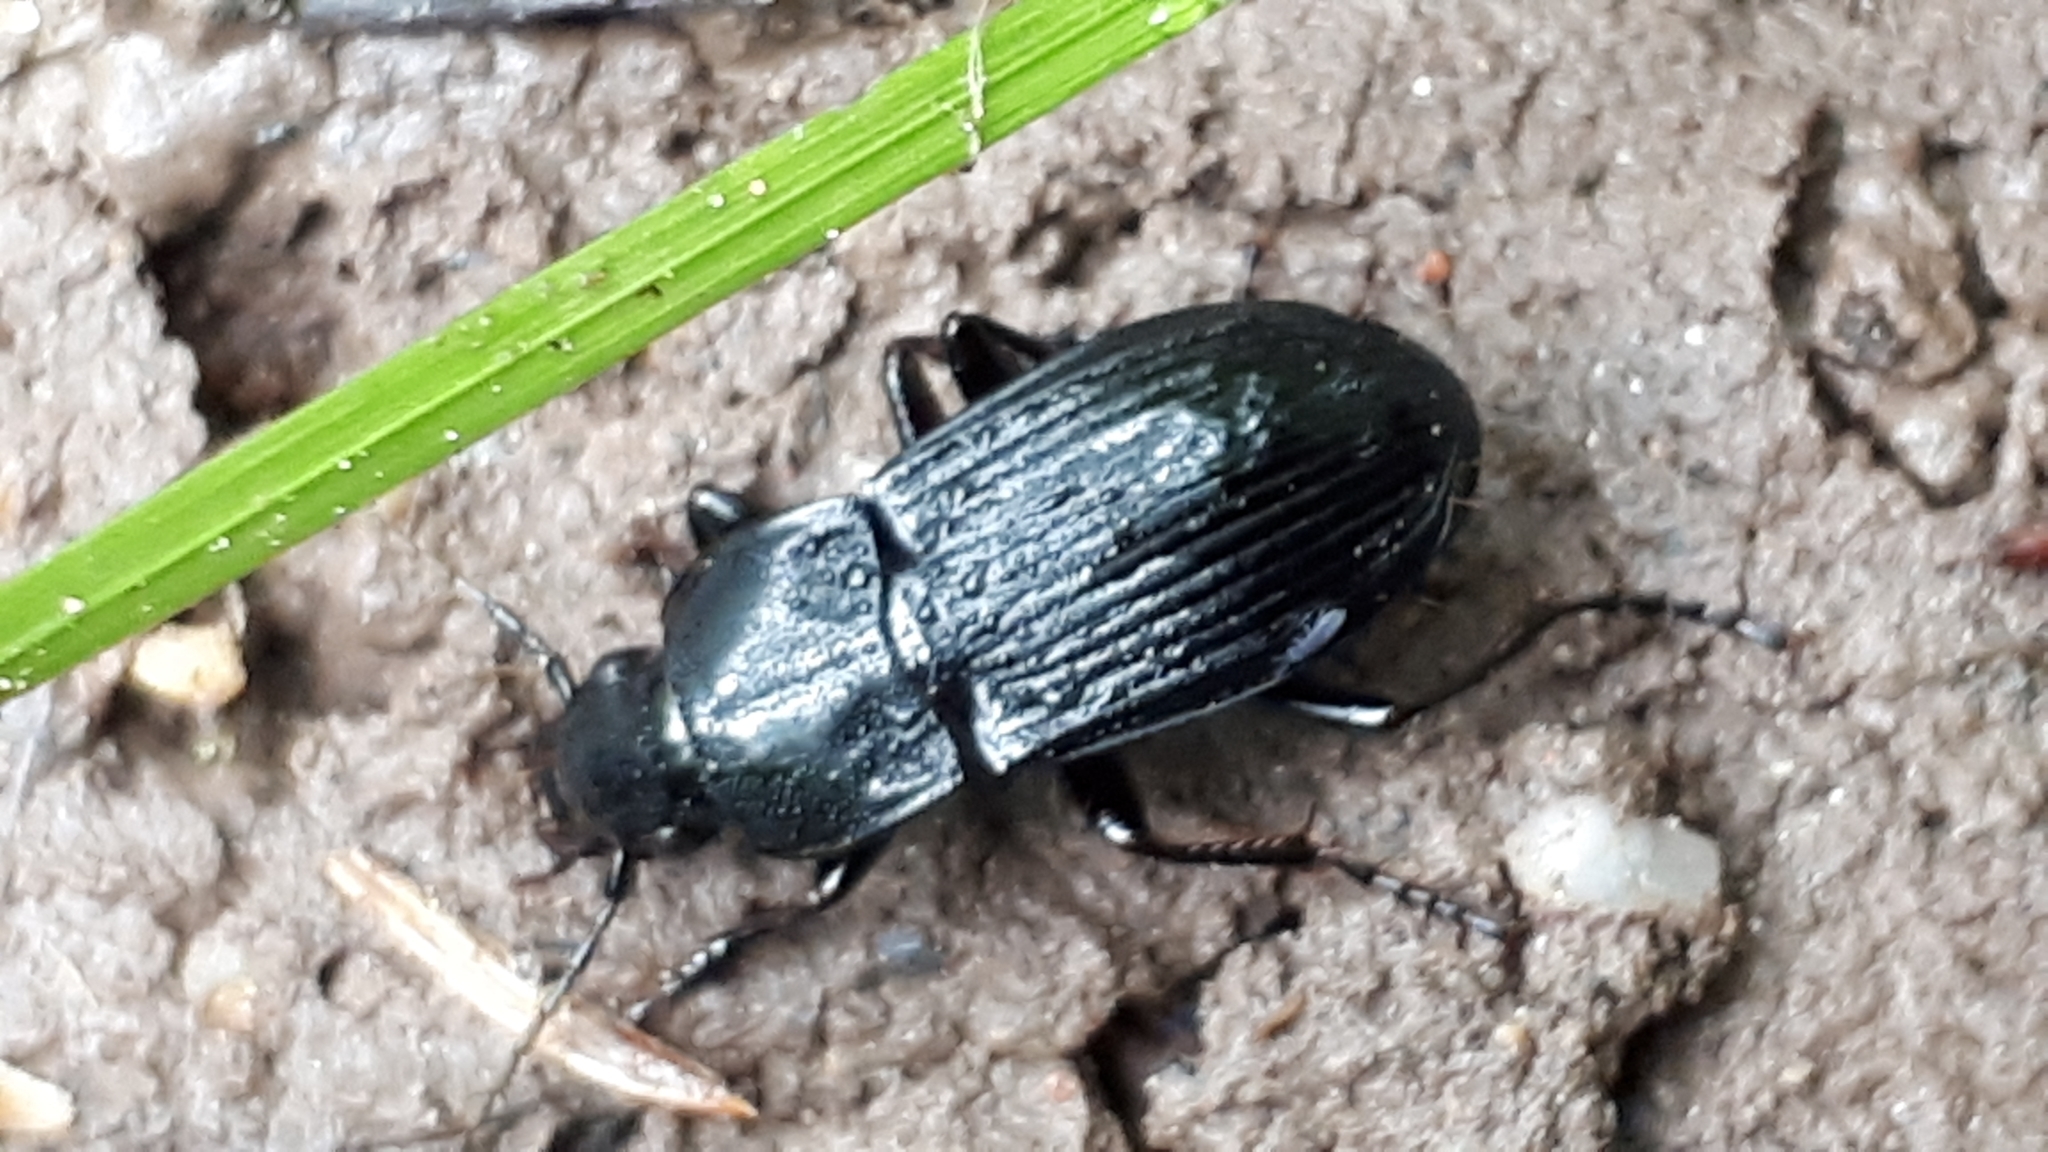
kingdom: Animalia
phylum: Arthropoda
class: Insecta
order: Coleoptera
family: Carabidae
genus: Abax
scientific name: Abax parallelepipedus
